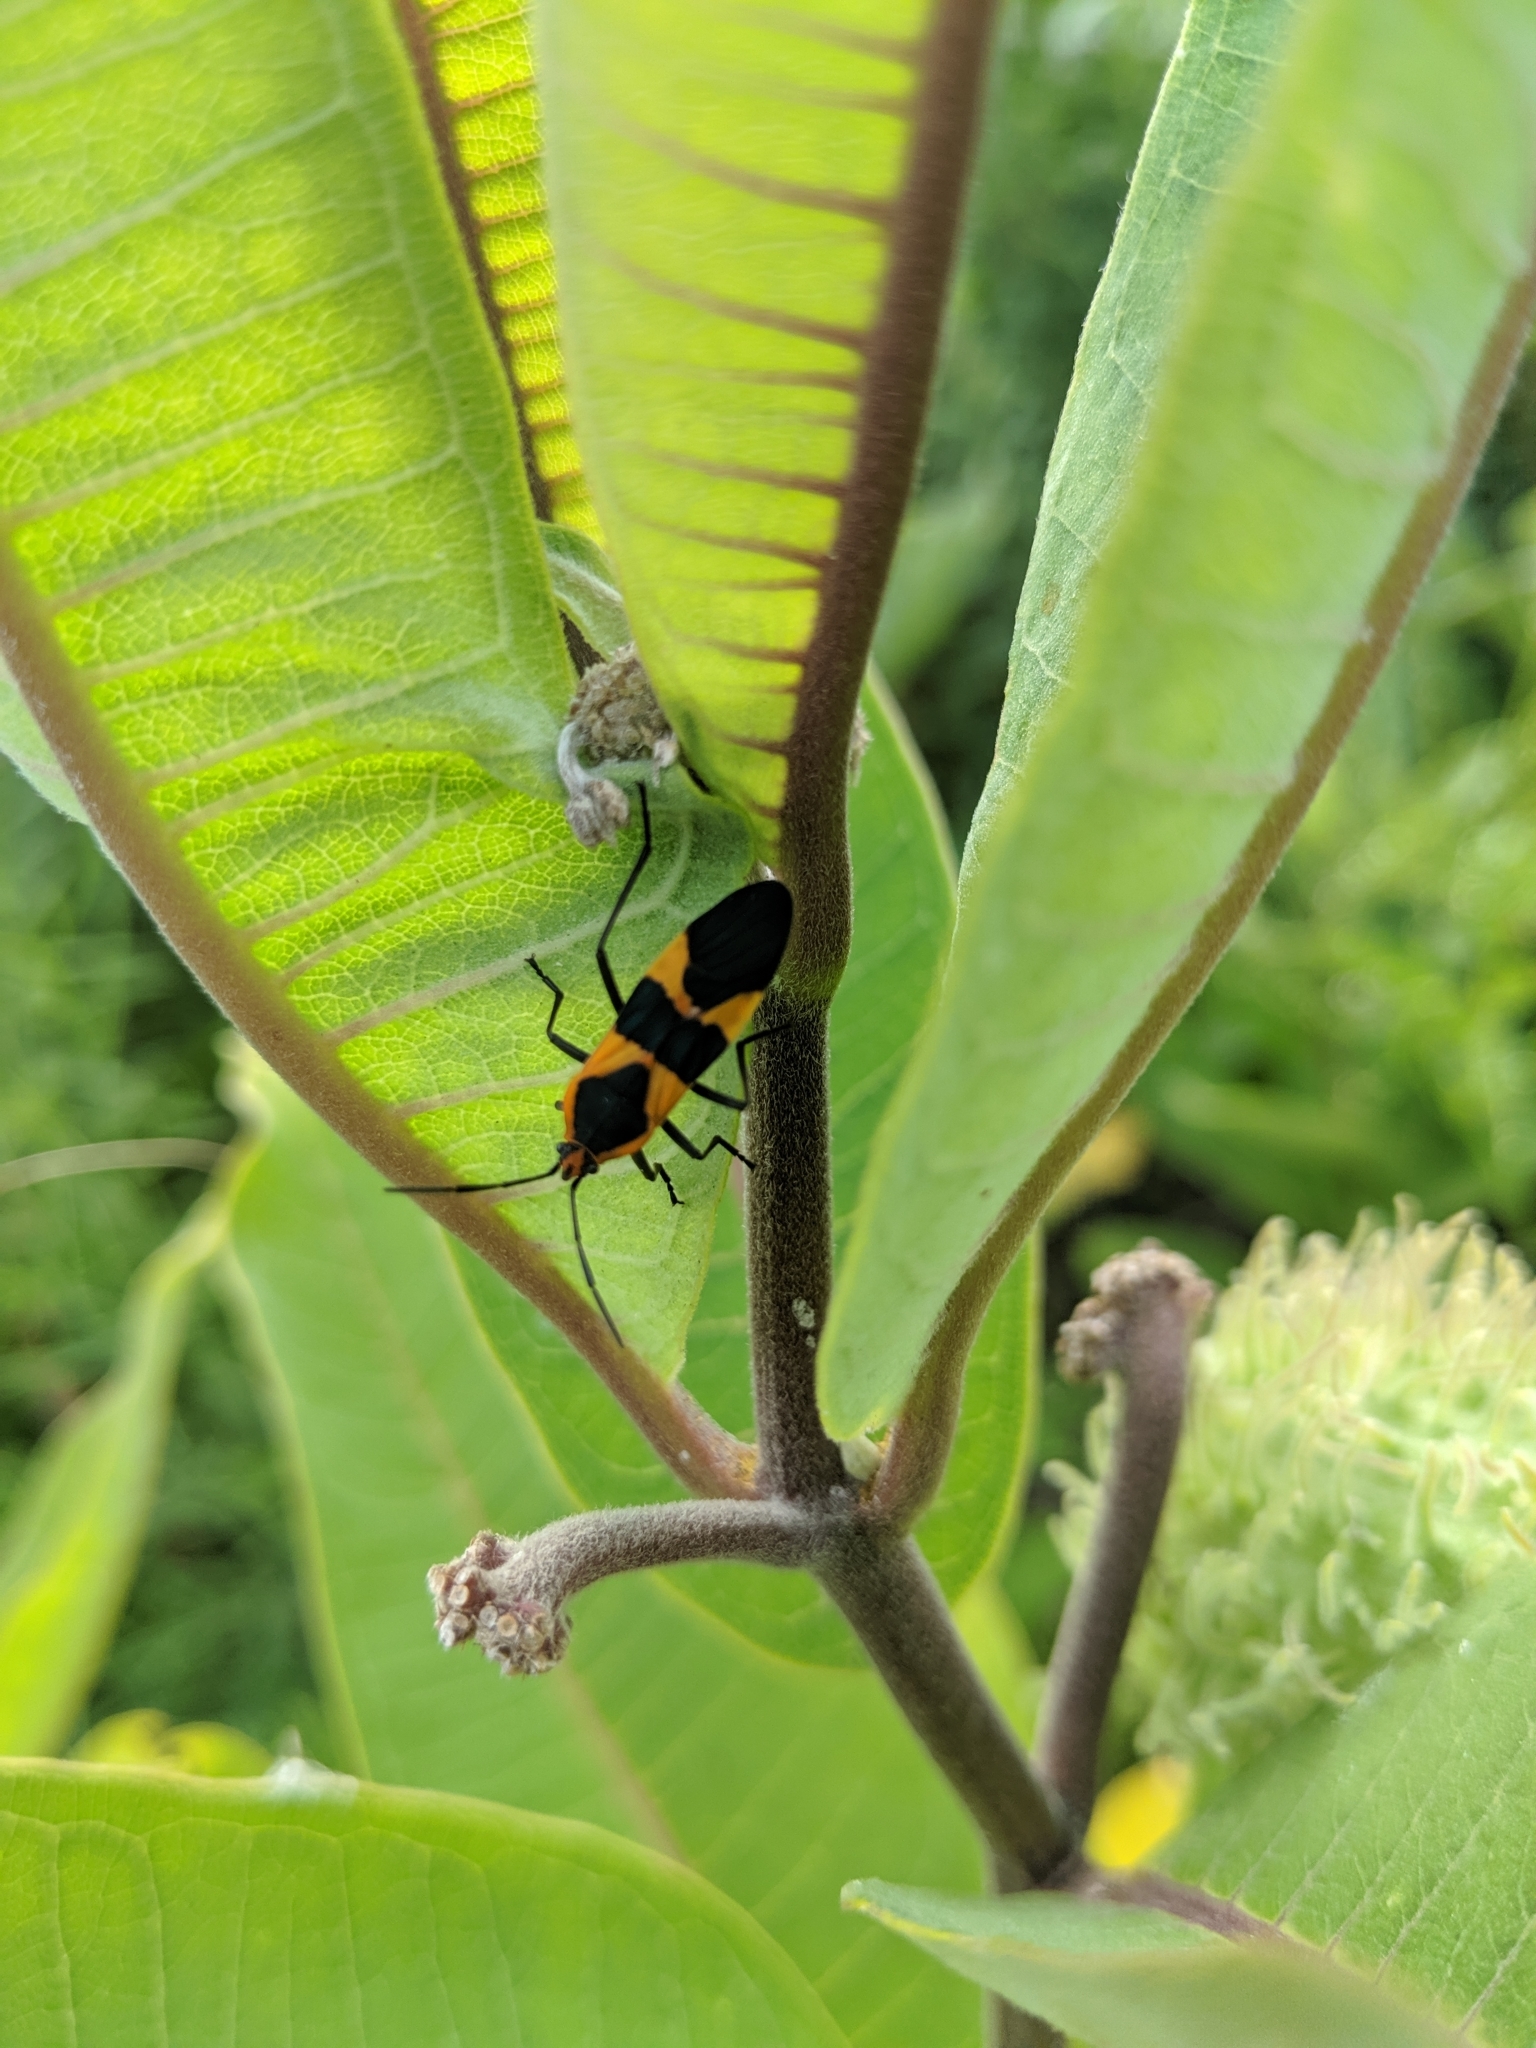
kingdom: Animalia
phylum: Arthropoda
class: Insecta
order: Hemiptera
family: Lygaeidae
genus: Oncopeltus
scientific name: Oncopeltus fasciatus
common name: Large milkweed bug
